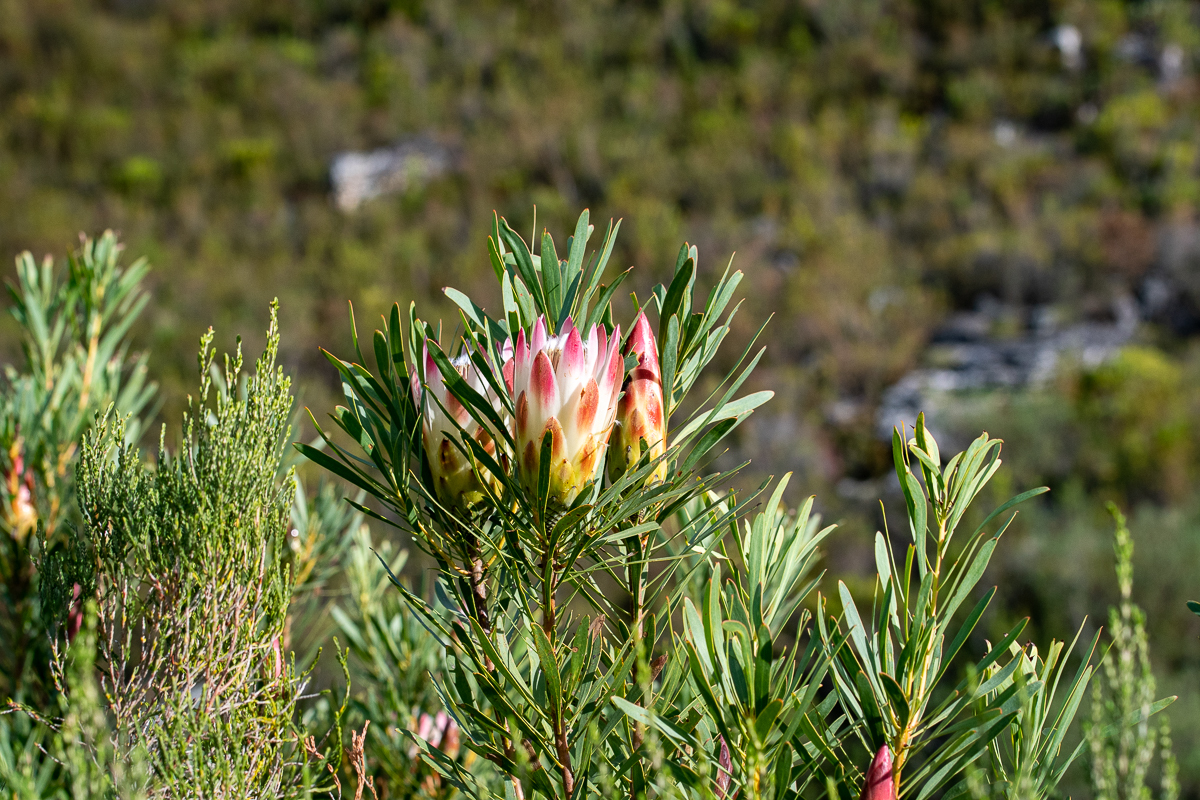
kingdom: Plantae
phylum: Tracheophyta
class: Magnoliopsida
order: Proteales
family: Proteaceae
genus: Protea
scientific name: Protea repens
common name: Sugarbush
